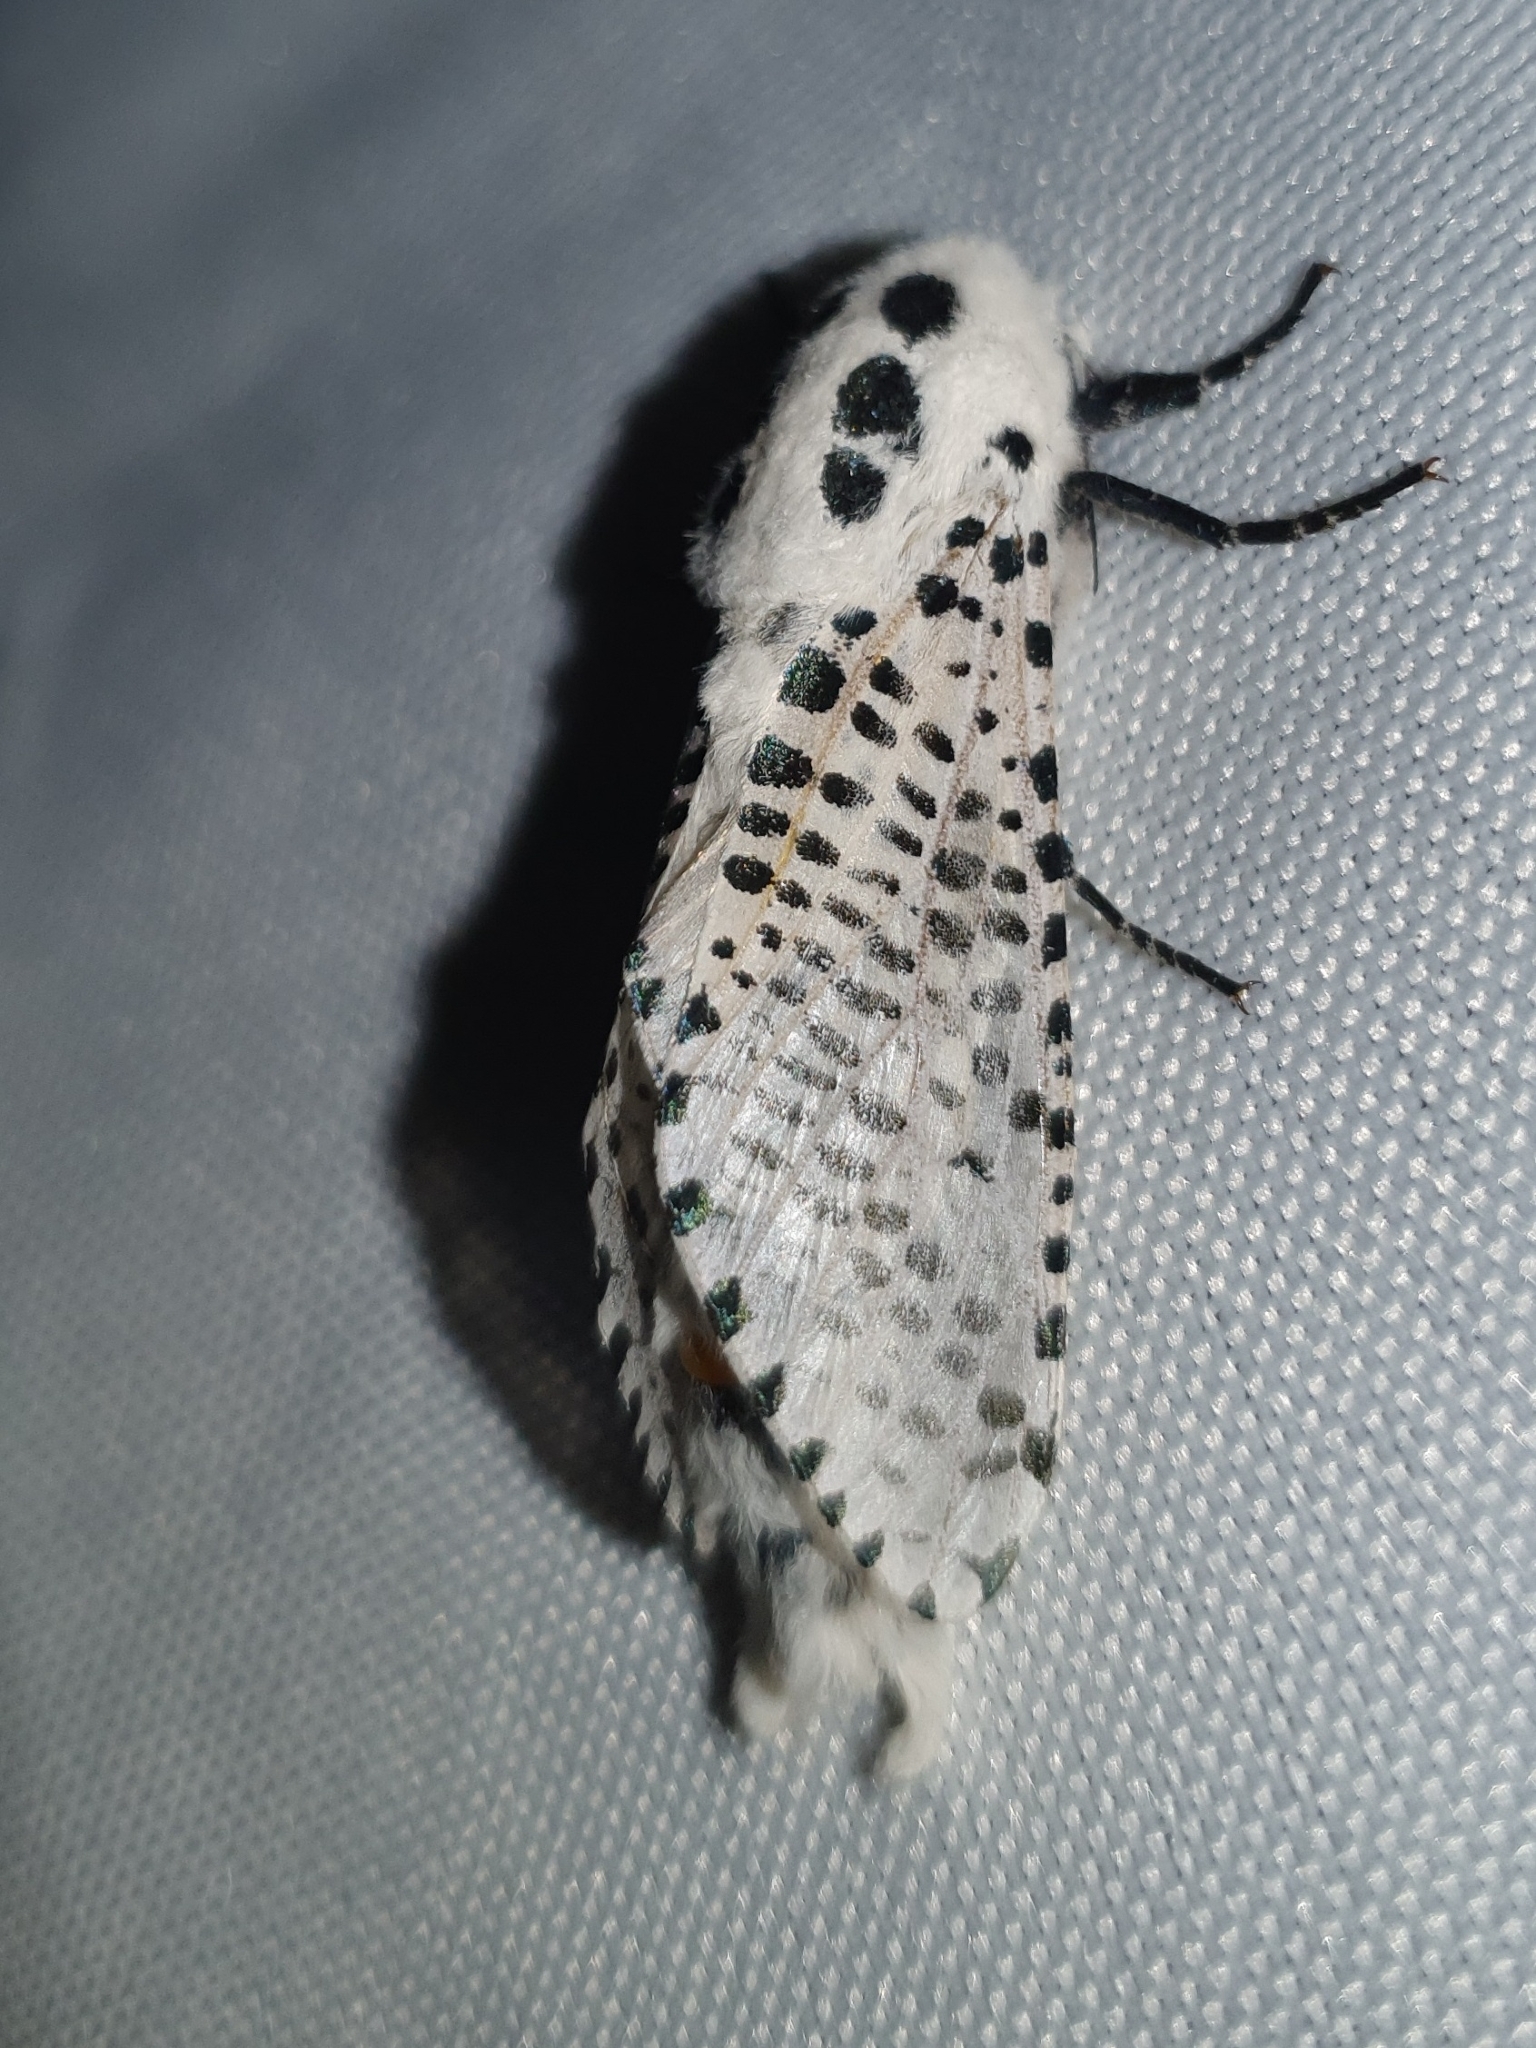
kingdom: Animalia
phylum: Arthropoda
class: Insecta
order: Lepidoptera
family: Cossidae
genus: Zeuzera
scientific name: Zeuzera pyrina
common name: Leopard moth
